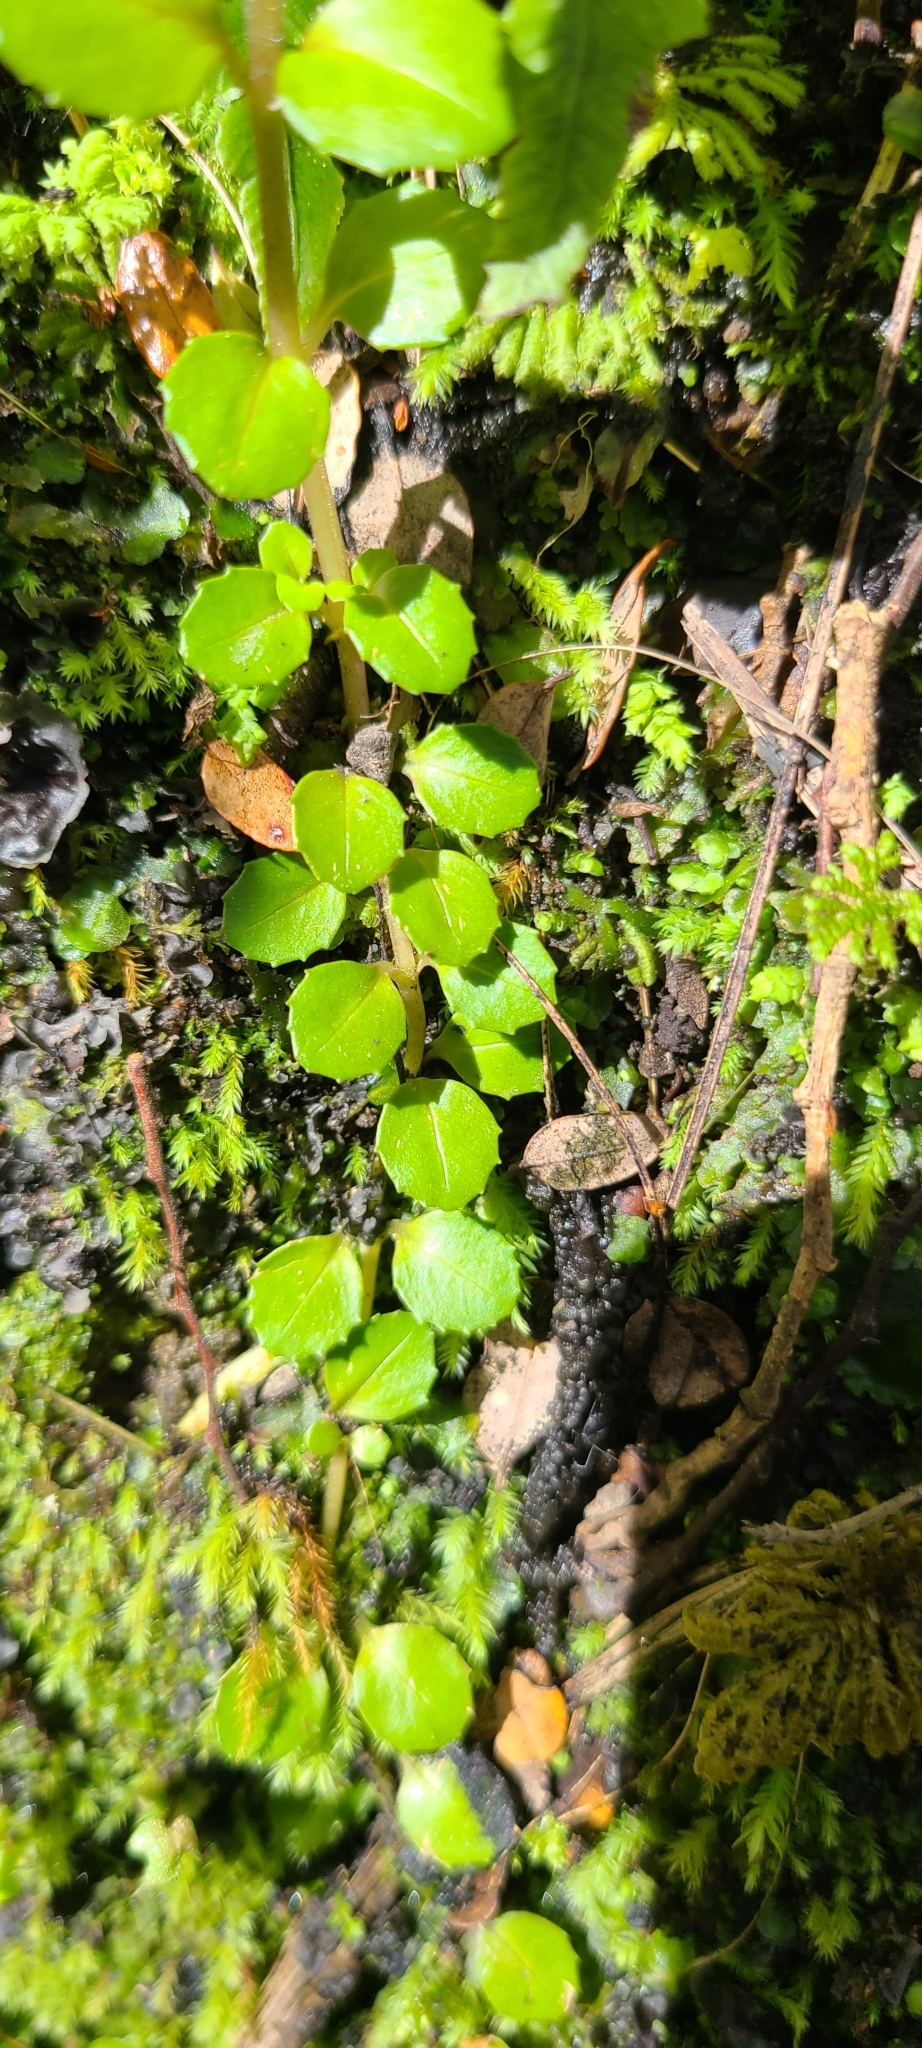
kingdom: Plantae
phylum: Tracheophyta
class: Magnoliopsida
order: Myrtales
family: Onagraceae
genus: Epilobium
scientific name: Epilobium rotundifolium
